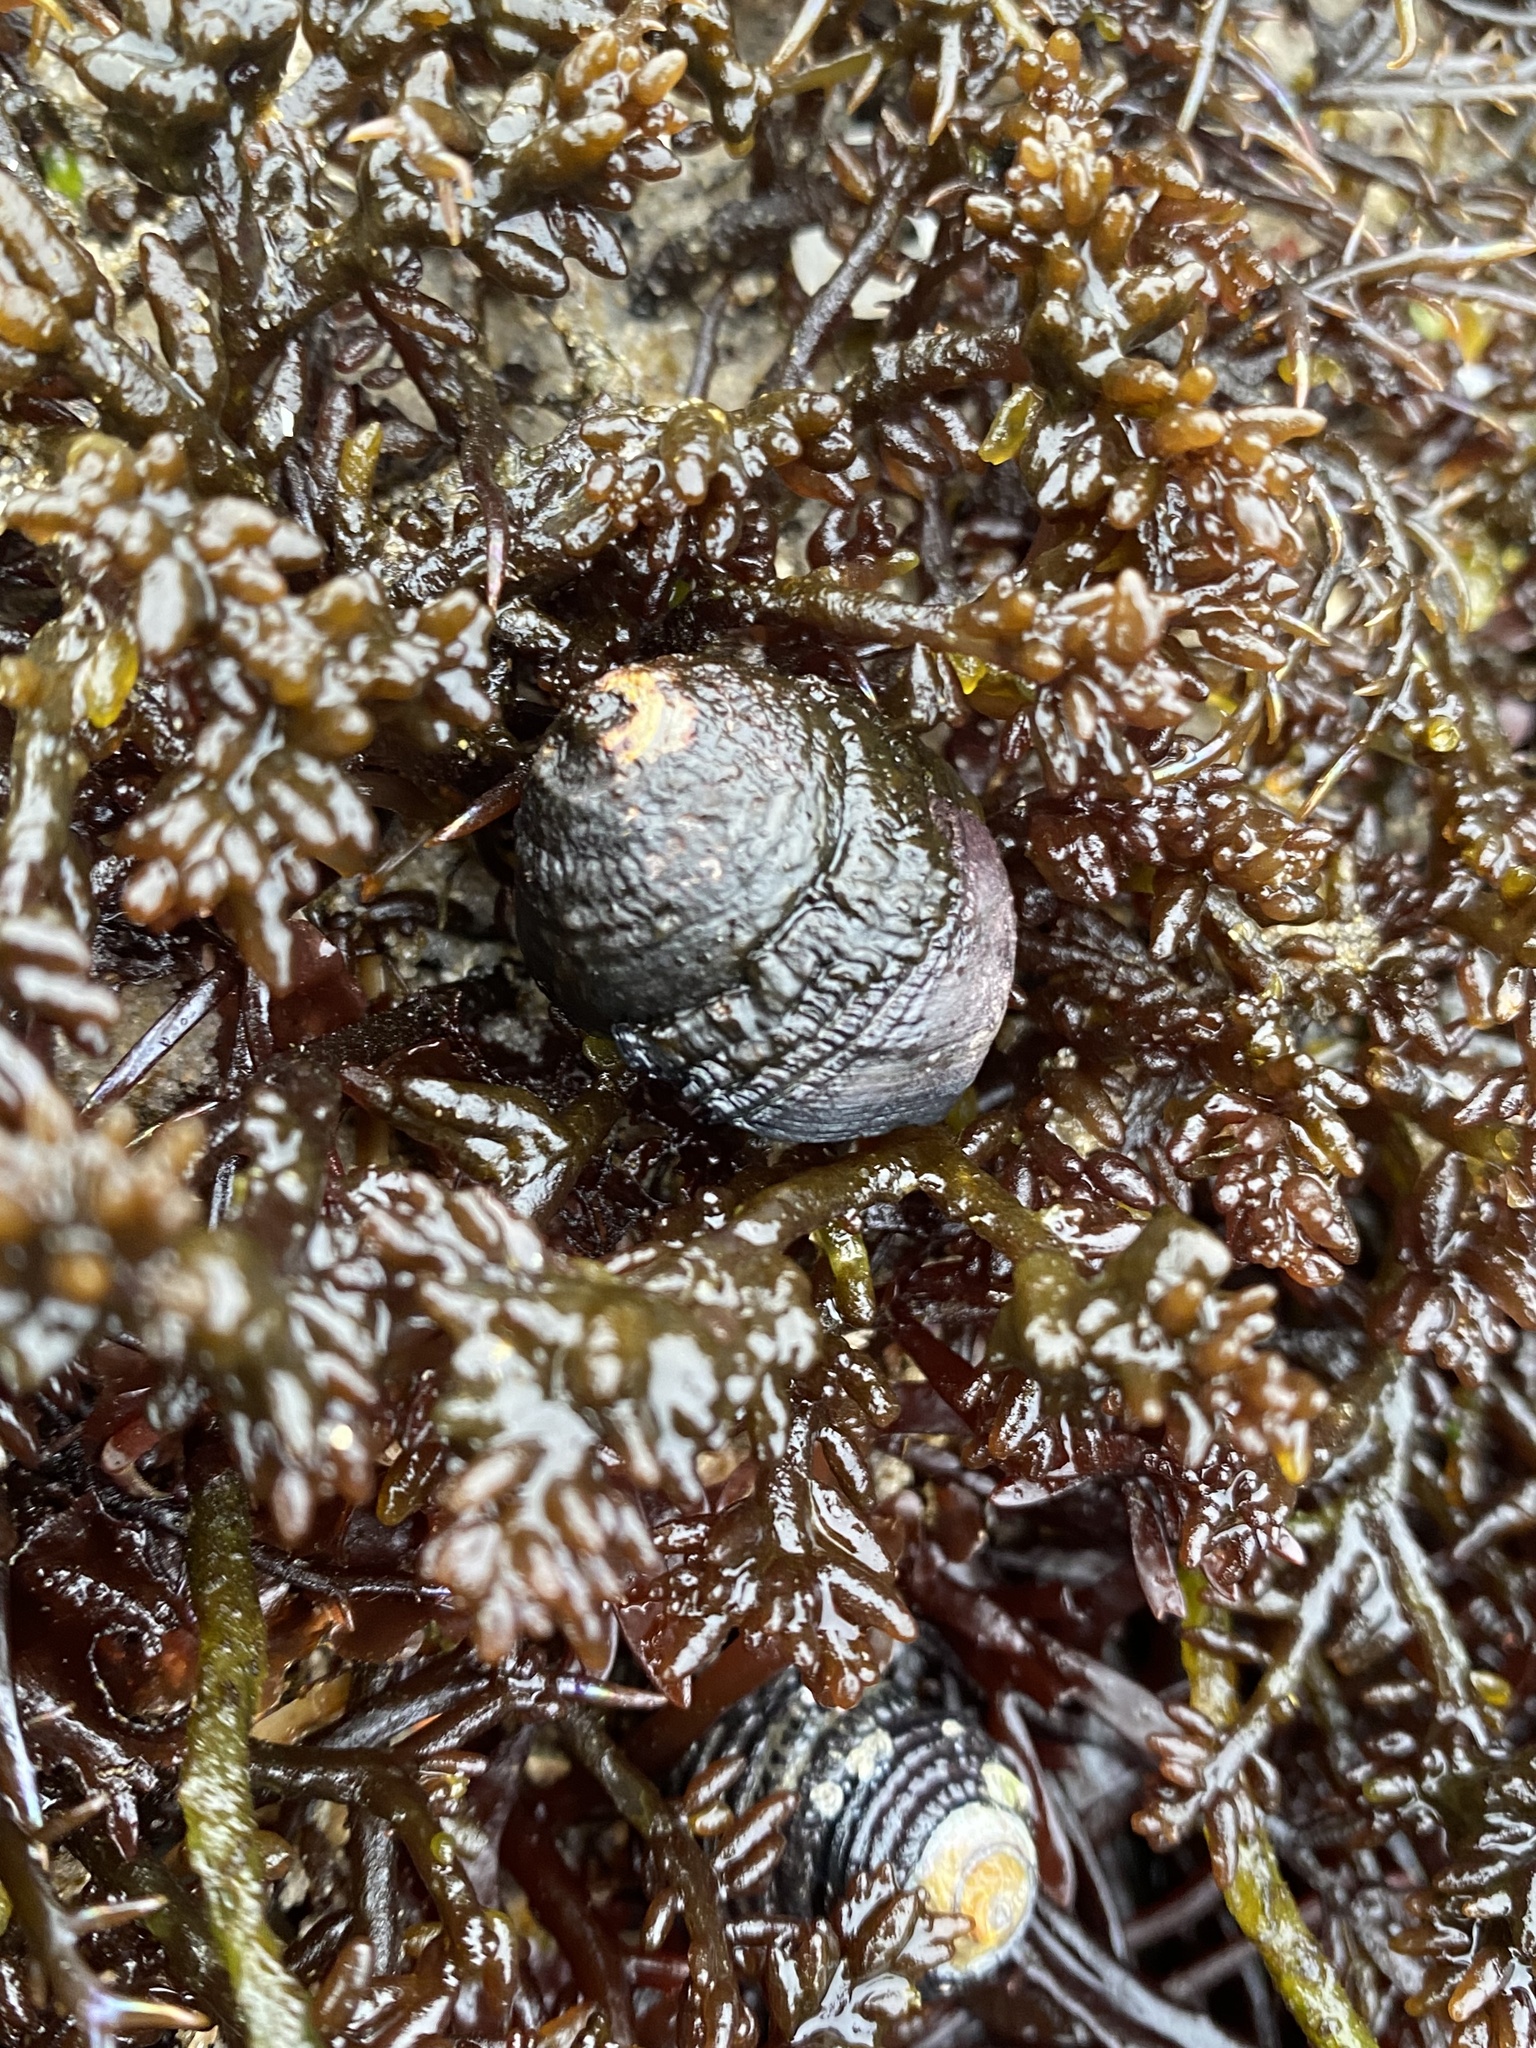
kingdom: Animalia
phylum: Mollusca
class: Gastropoda
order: Trochida
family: Tegulidae
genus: Tegula
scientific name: Tegula funebralis
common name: Black tegula
